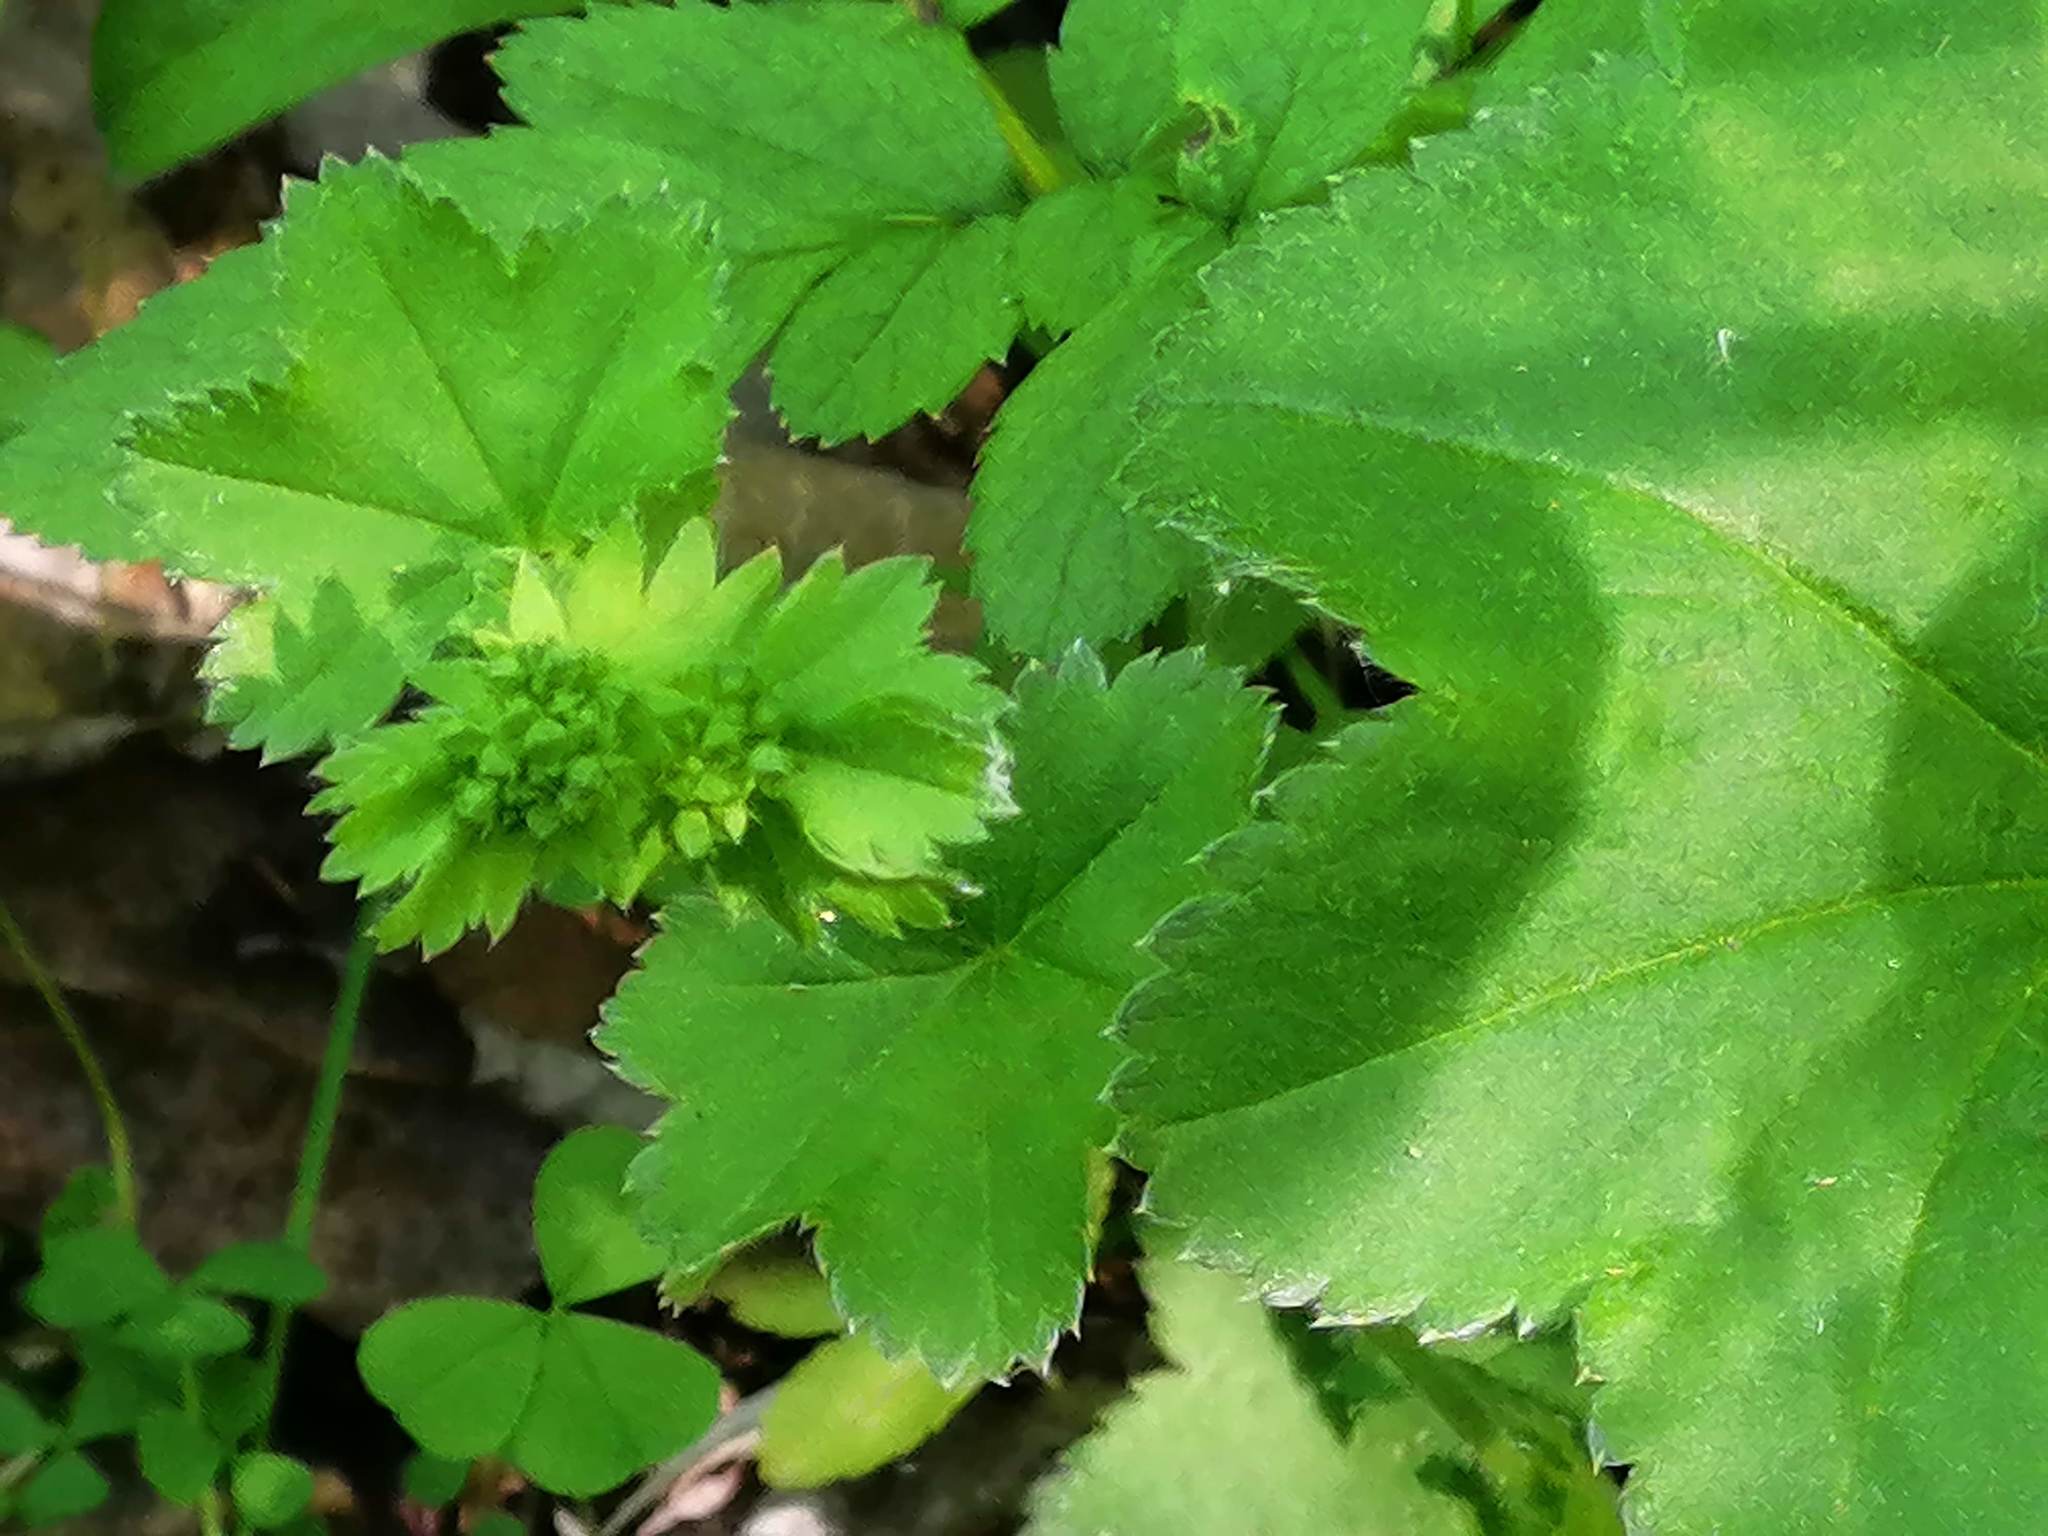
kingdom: Plantae
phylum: Tracheophyta
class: Magnoliopsida
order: Rosales
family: Rosaceae
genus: Alchemilla
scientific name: Alchemilla
